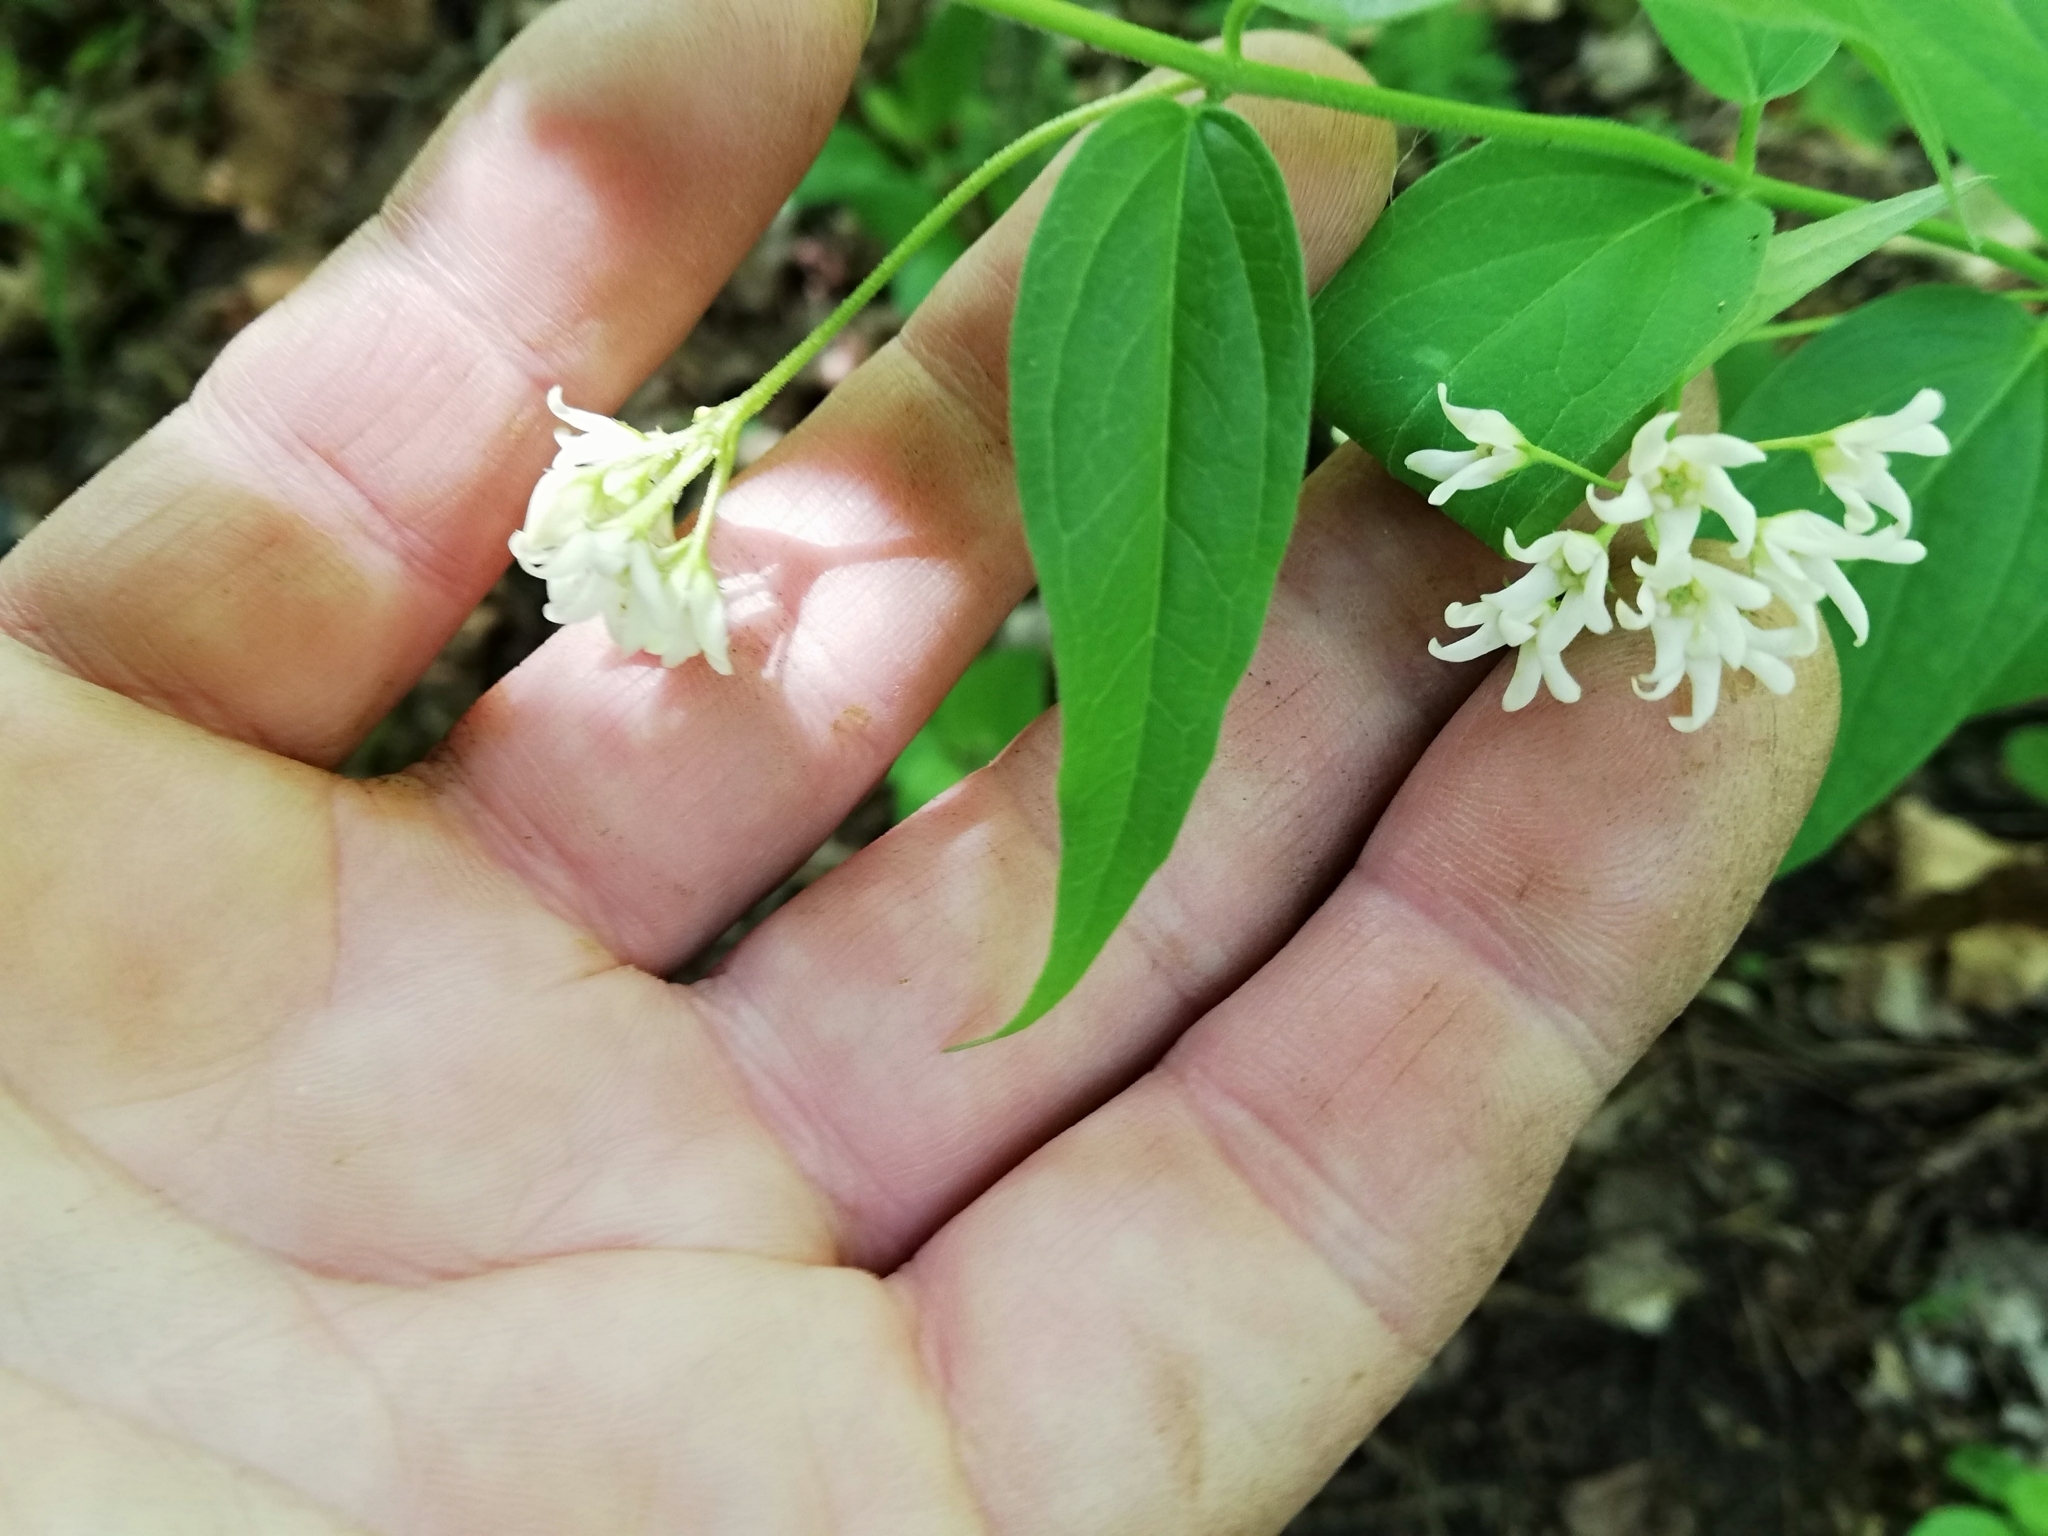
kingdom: Plantae
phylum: Tracheophyta
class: Magnoliopsida
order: Gentianales
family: Apocynaceae
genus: Vincetoxicum
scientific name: Vincetoxicum hirundinaria
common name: White swallowwort
